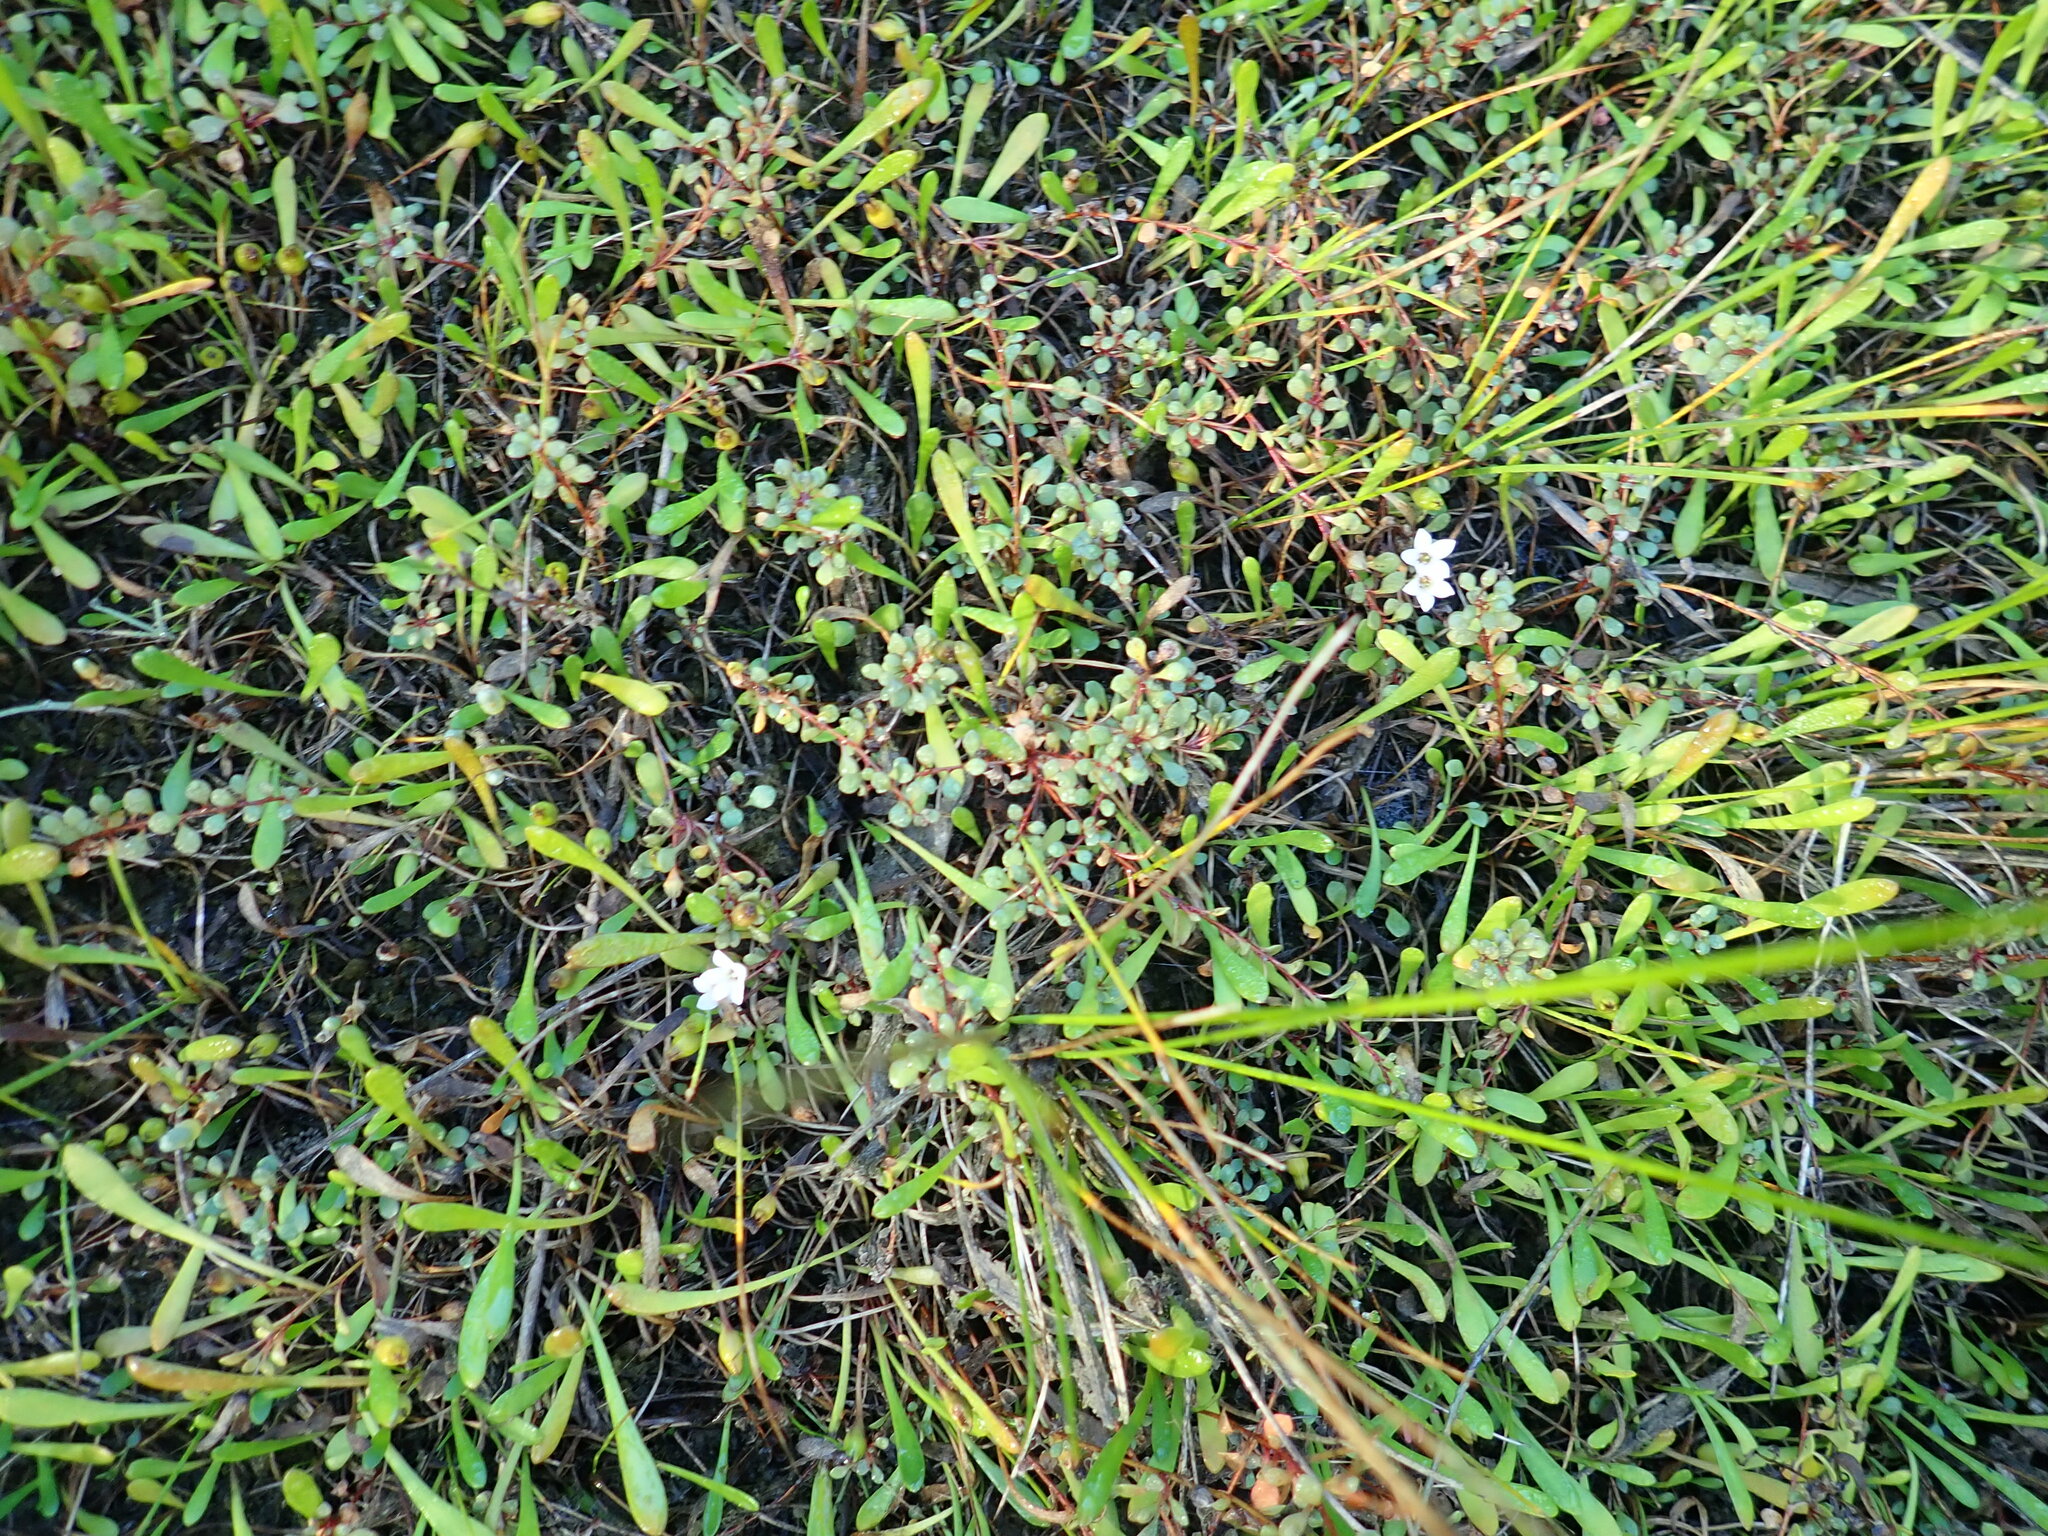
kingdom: Plantae
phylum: Tracheophyta
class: Magnoliopsida
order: Ericales
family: Primulaceae
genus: Samolus
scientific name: Samolus repens
